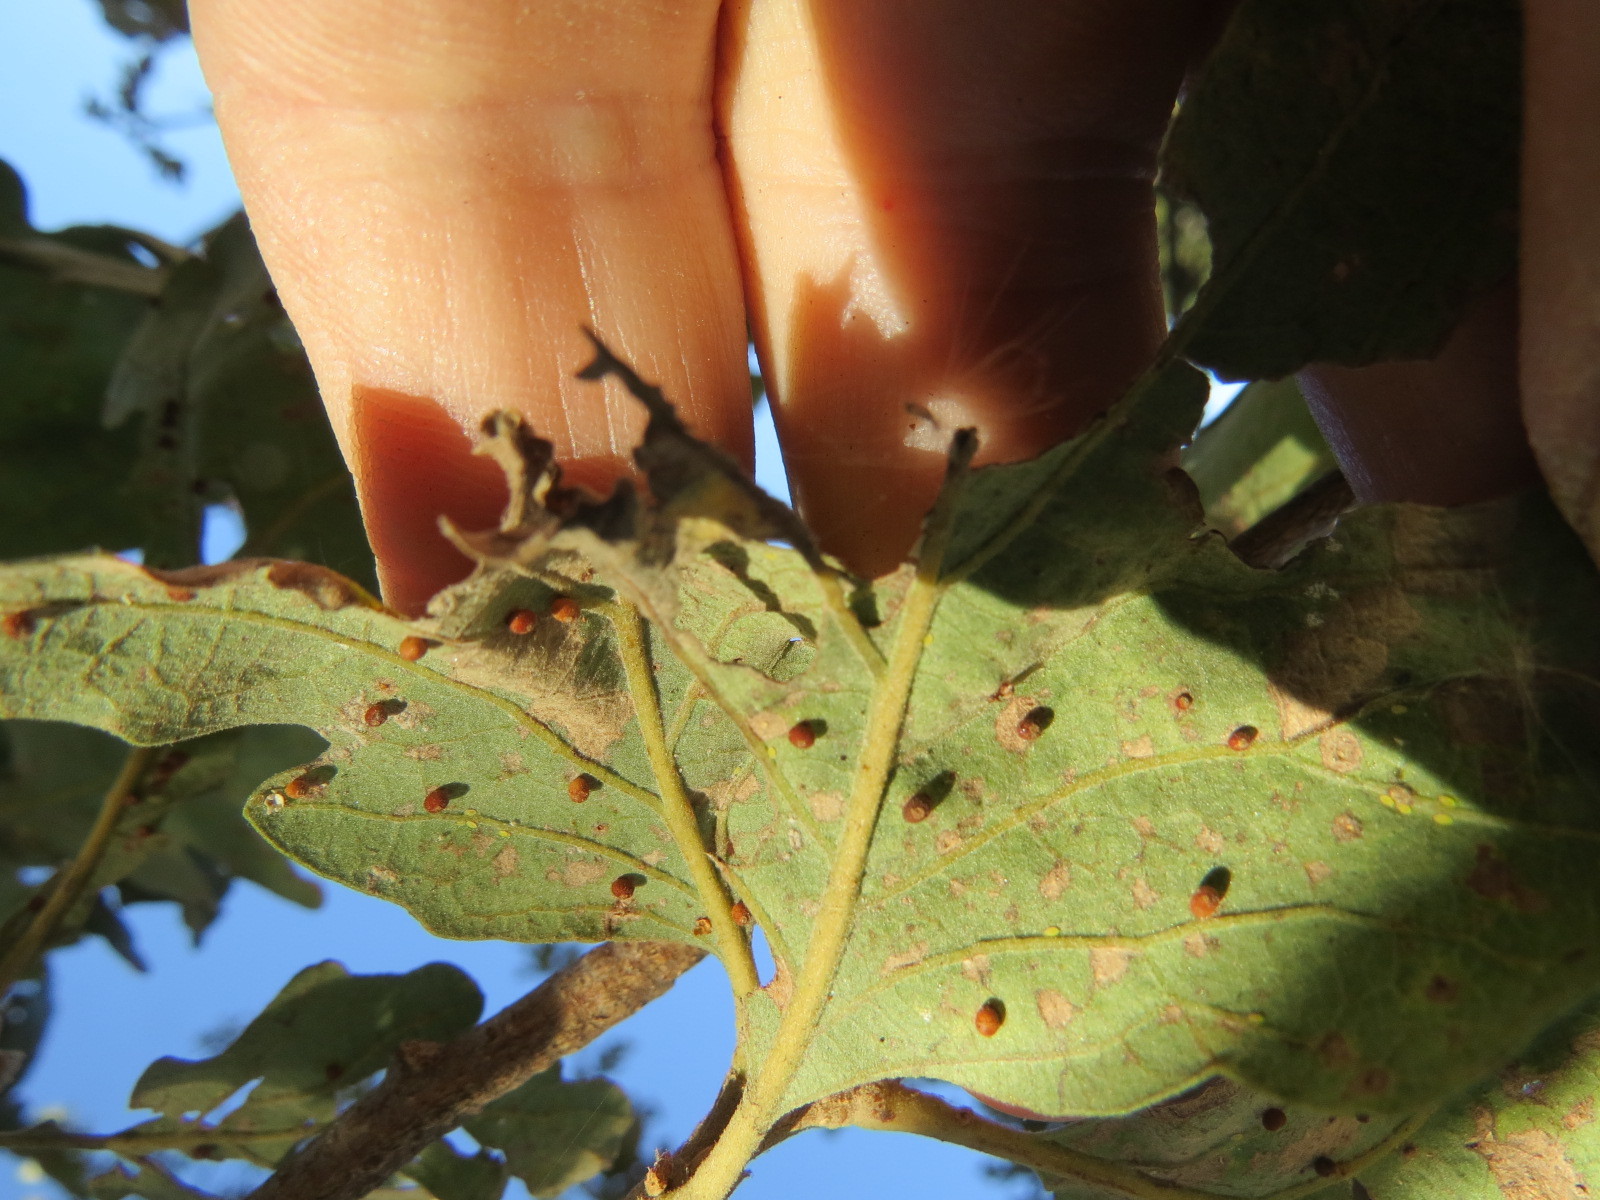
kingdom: Animalia
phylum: Arthropoda
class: Insecta
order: Hymenoptera
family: Cynipidae
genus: Neuroterus
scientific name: Neuroterus saltarius
